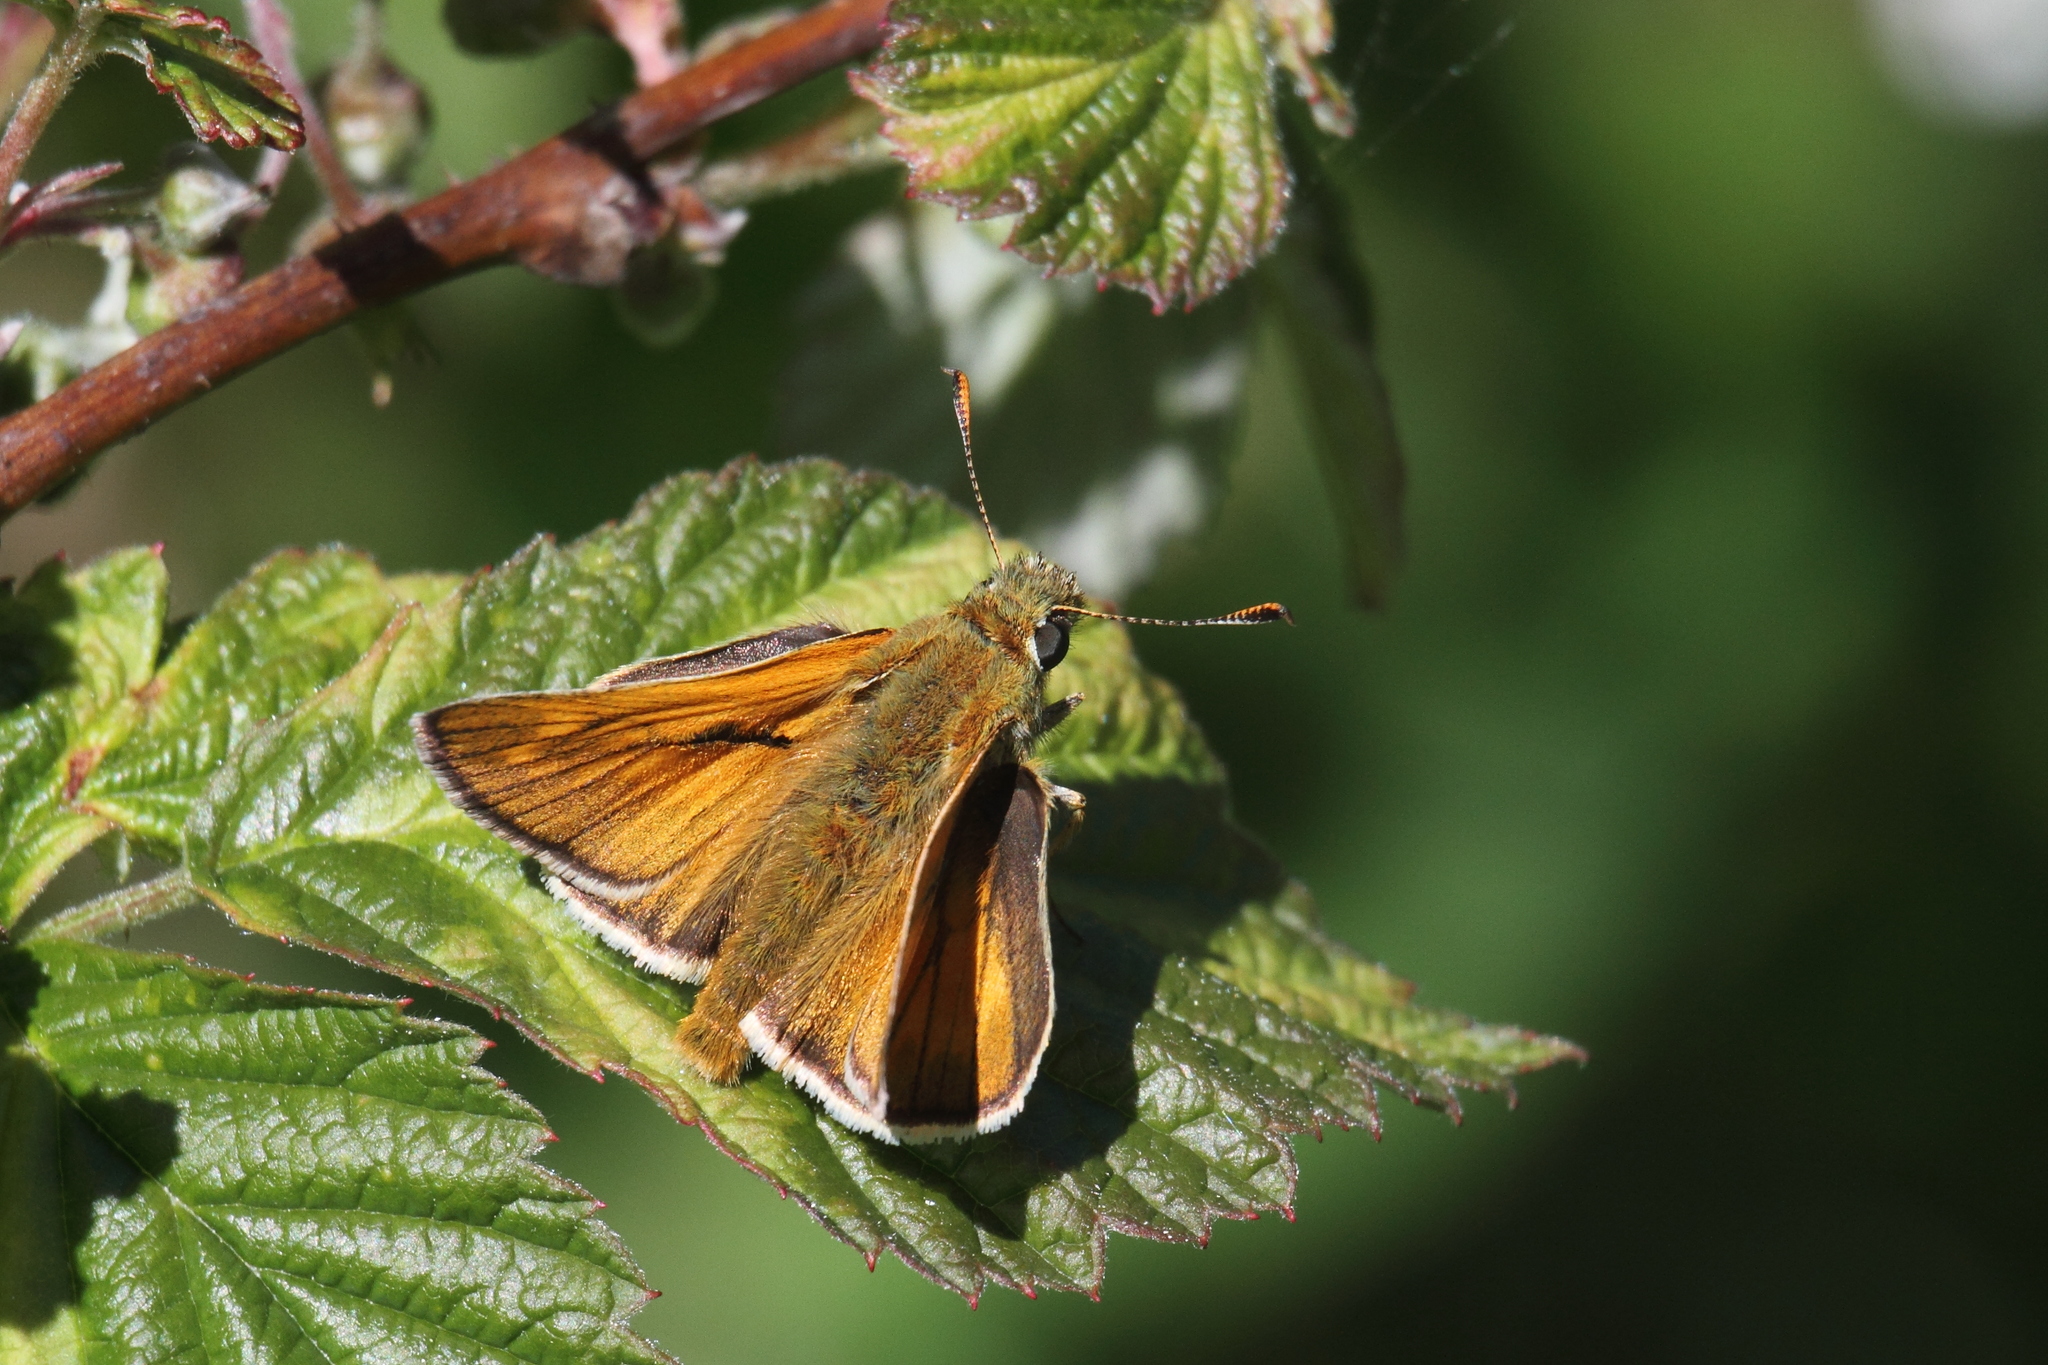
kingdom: Animalia
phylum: Arthropoda
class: Insecta
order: Lepidoptera
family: Hesperiidae
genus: Ochlodes
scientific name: Ochlodes venata
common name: Large skipper
